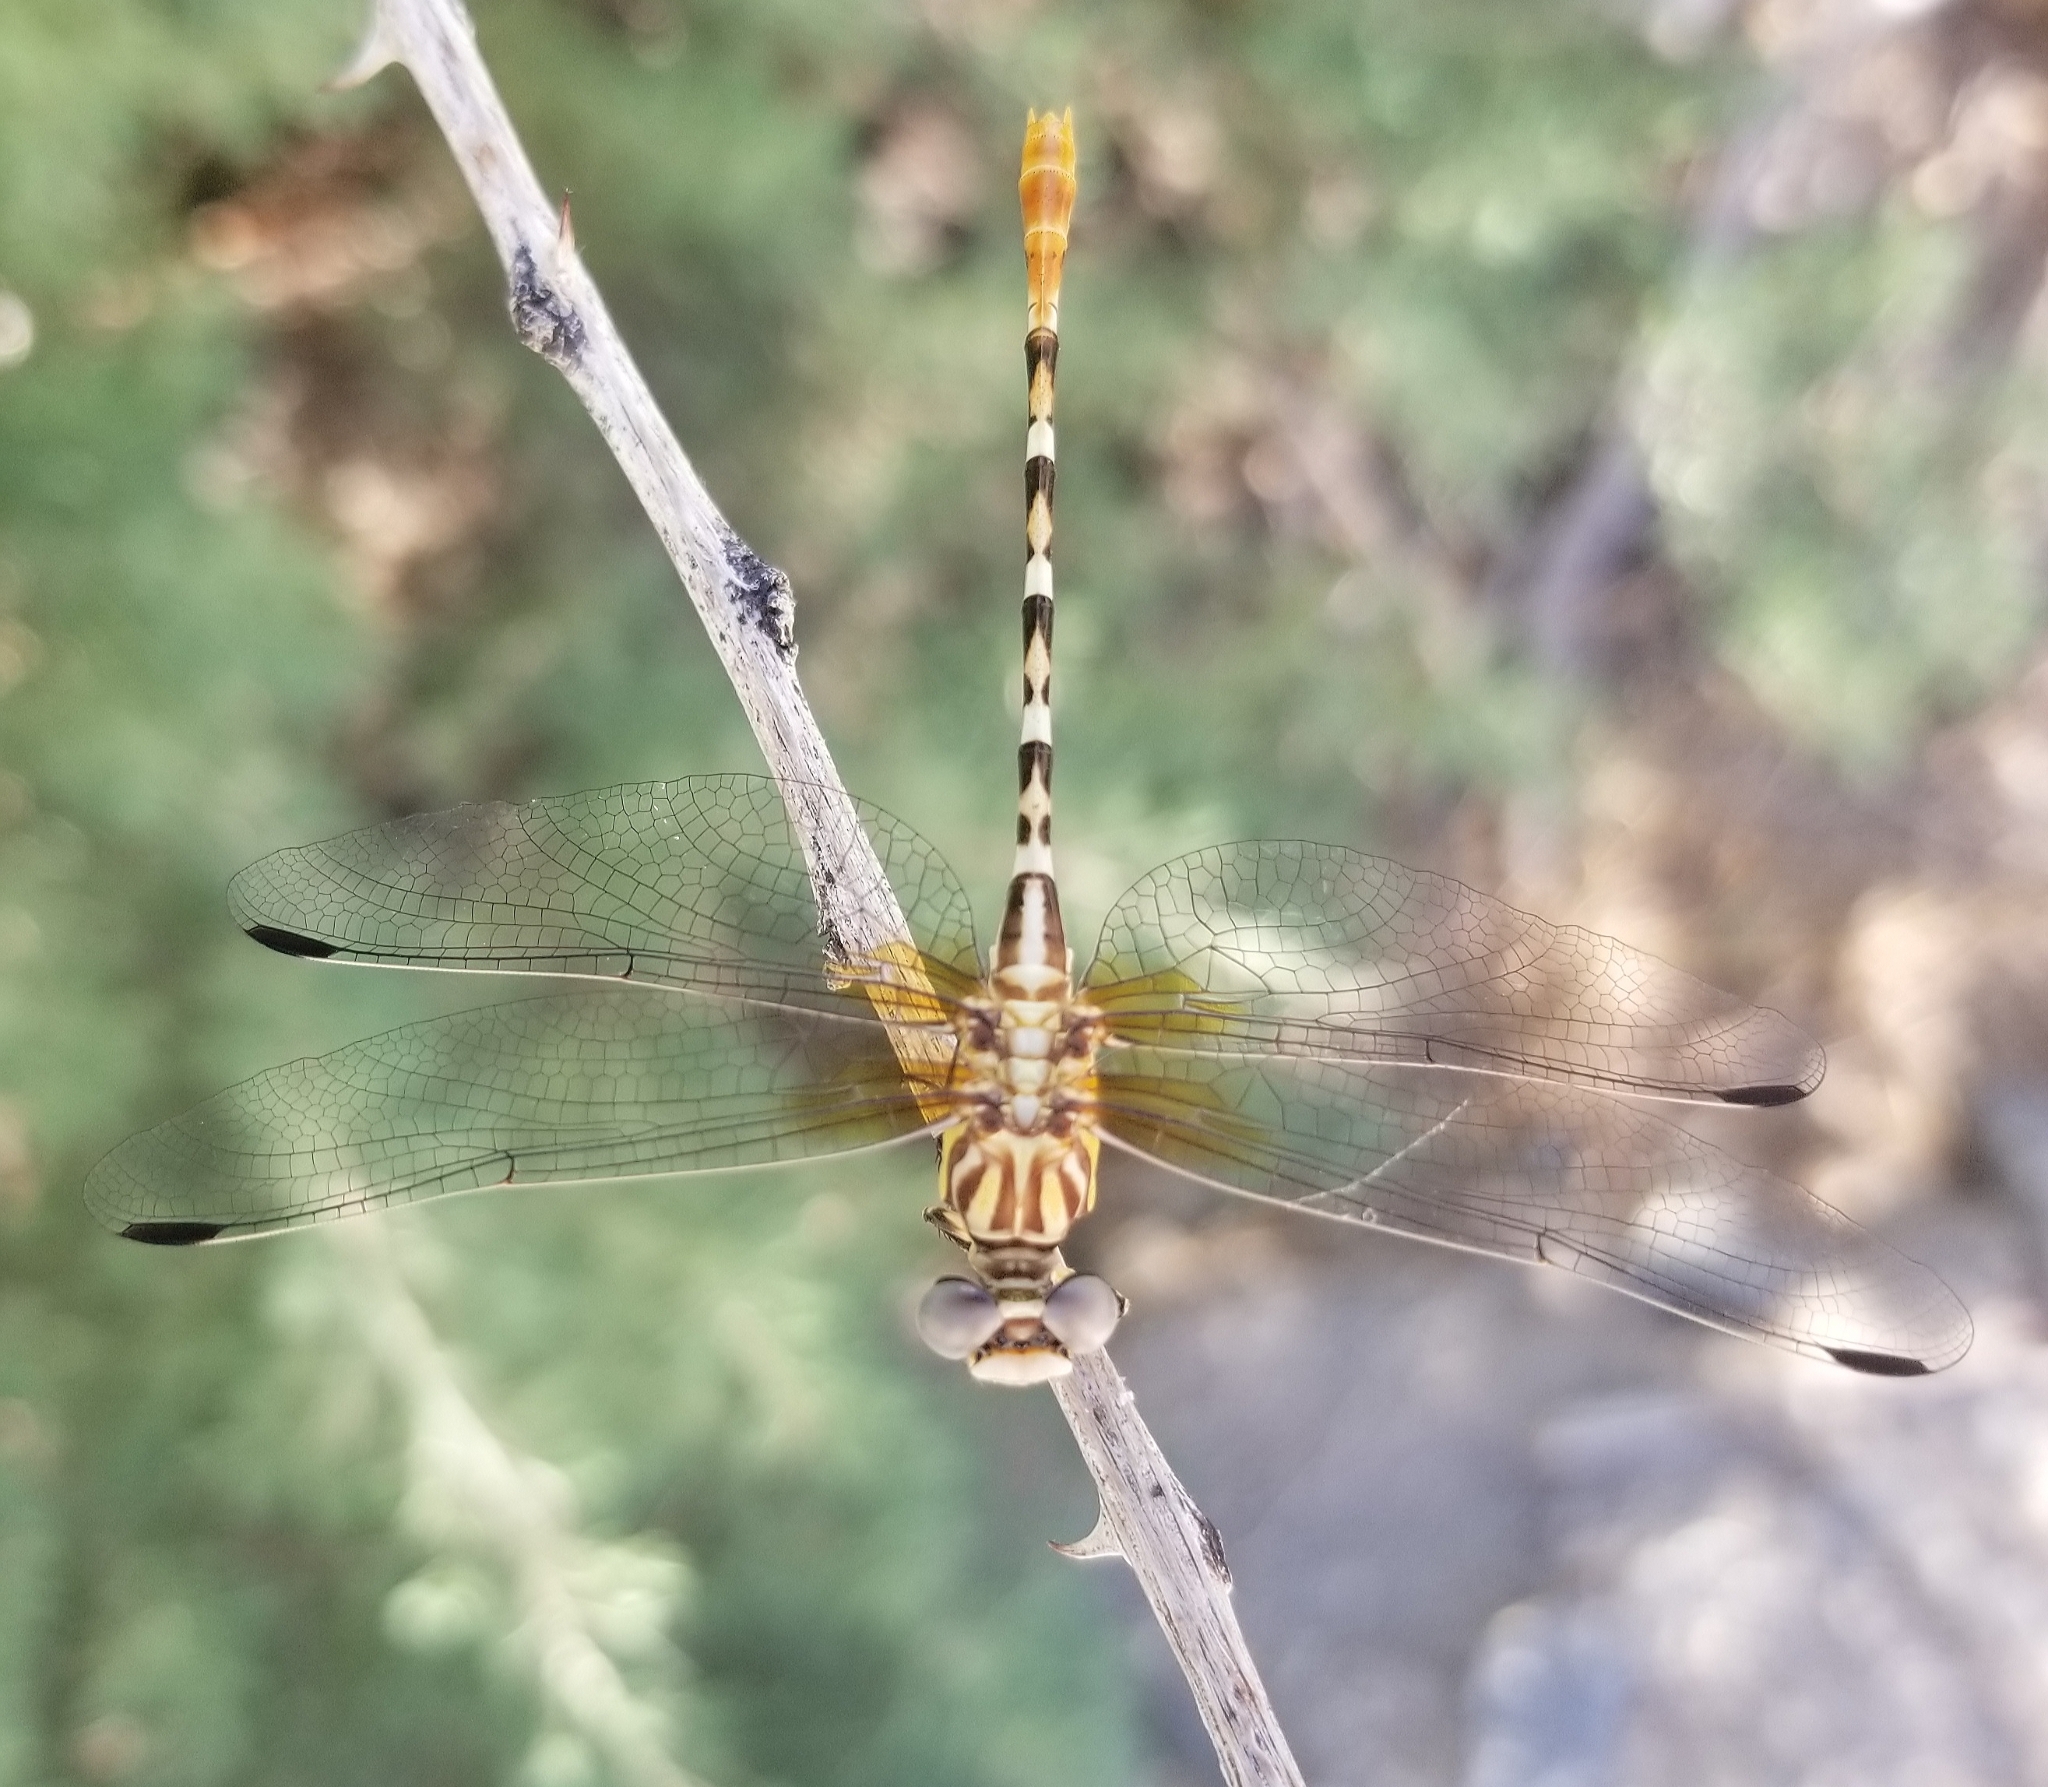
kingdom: Animalia
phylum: Arthropoda
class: Insecta
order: Odonata
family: Gomphidae
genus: Erpetogomphus
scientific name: Erpetogomphus compositus
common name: White-belted ringtail
